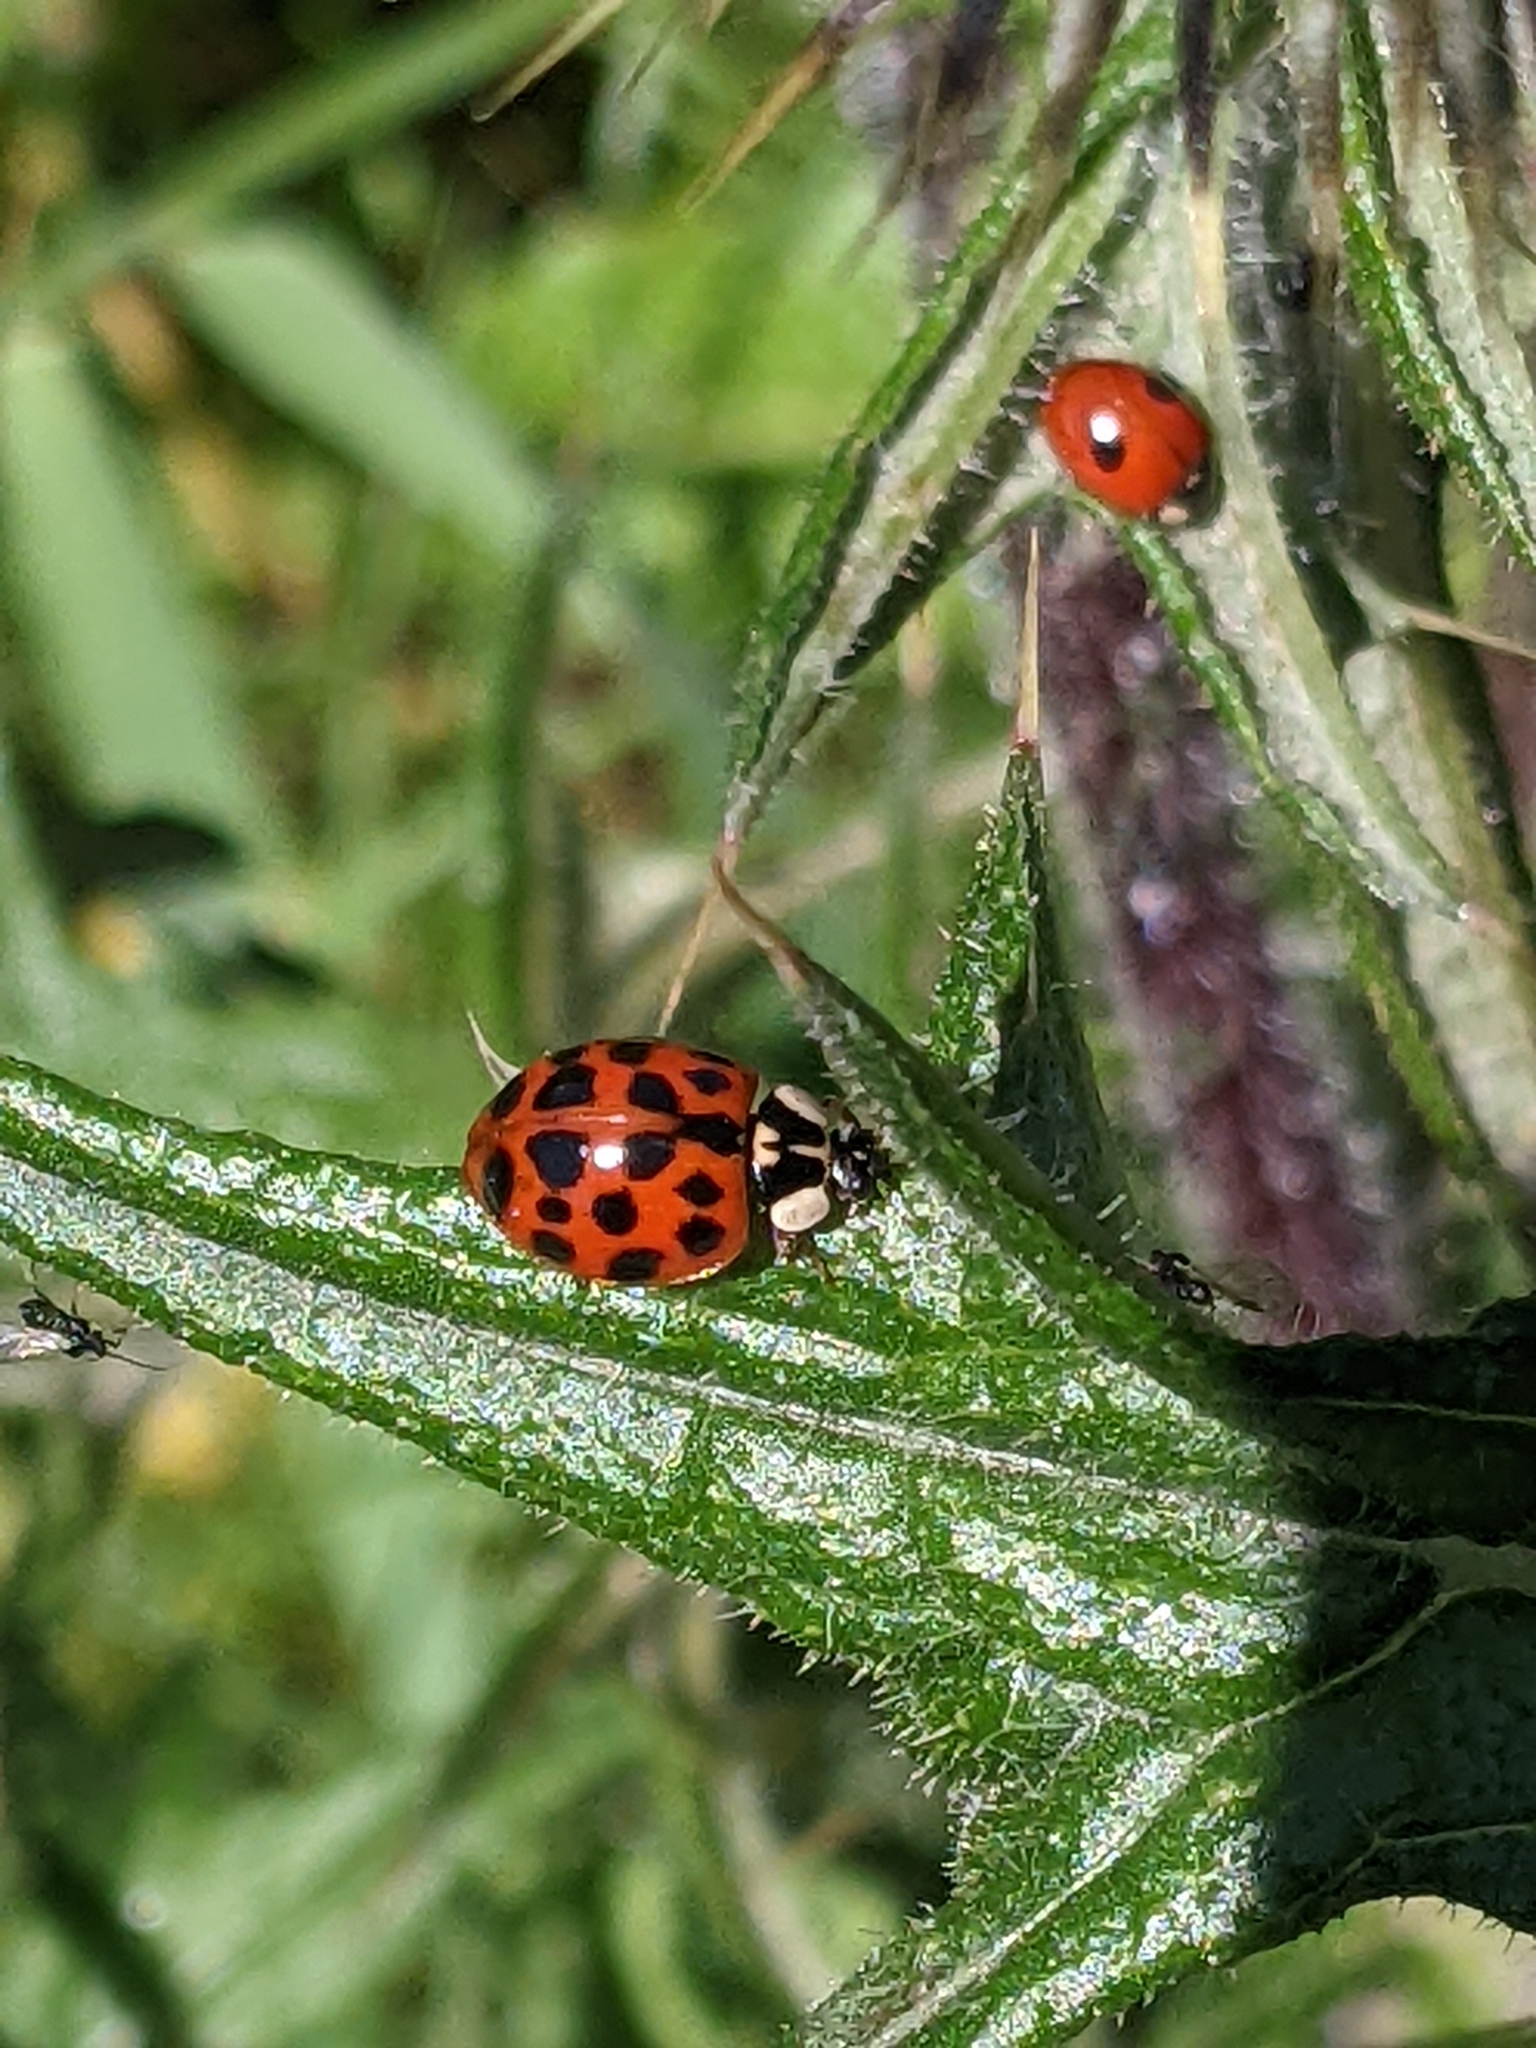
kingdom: Animalia
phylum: Arthropoda
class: Insecta
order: Coleoptera
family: Coccinellidae
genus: Harmonia
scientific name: Harmonia axyridis
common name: Harlequin ladybird
